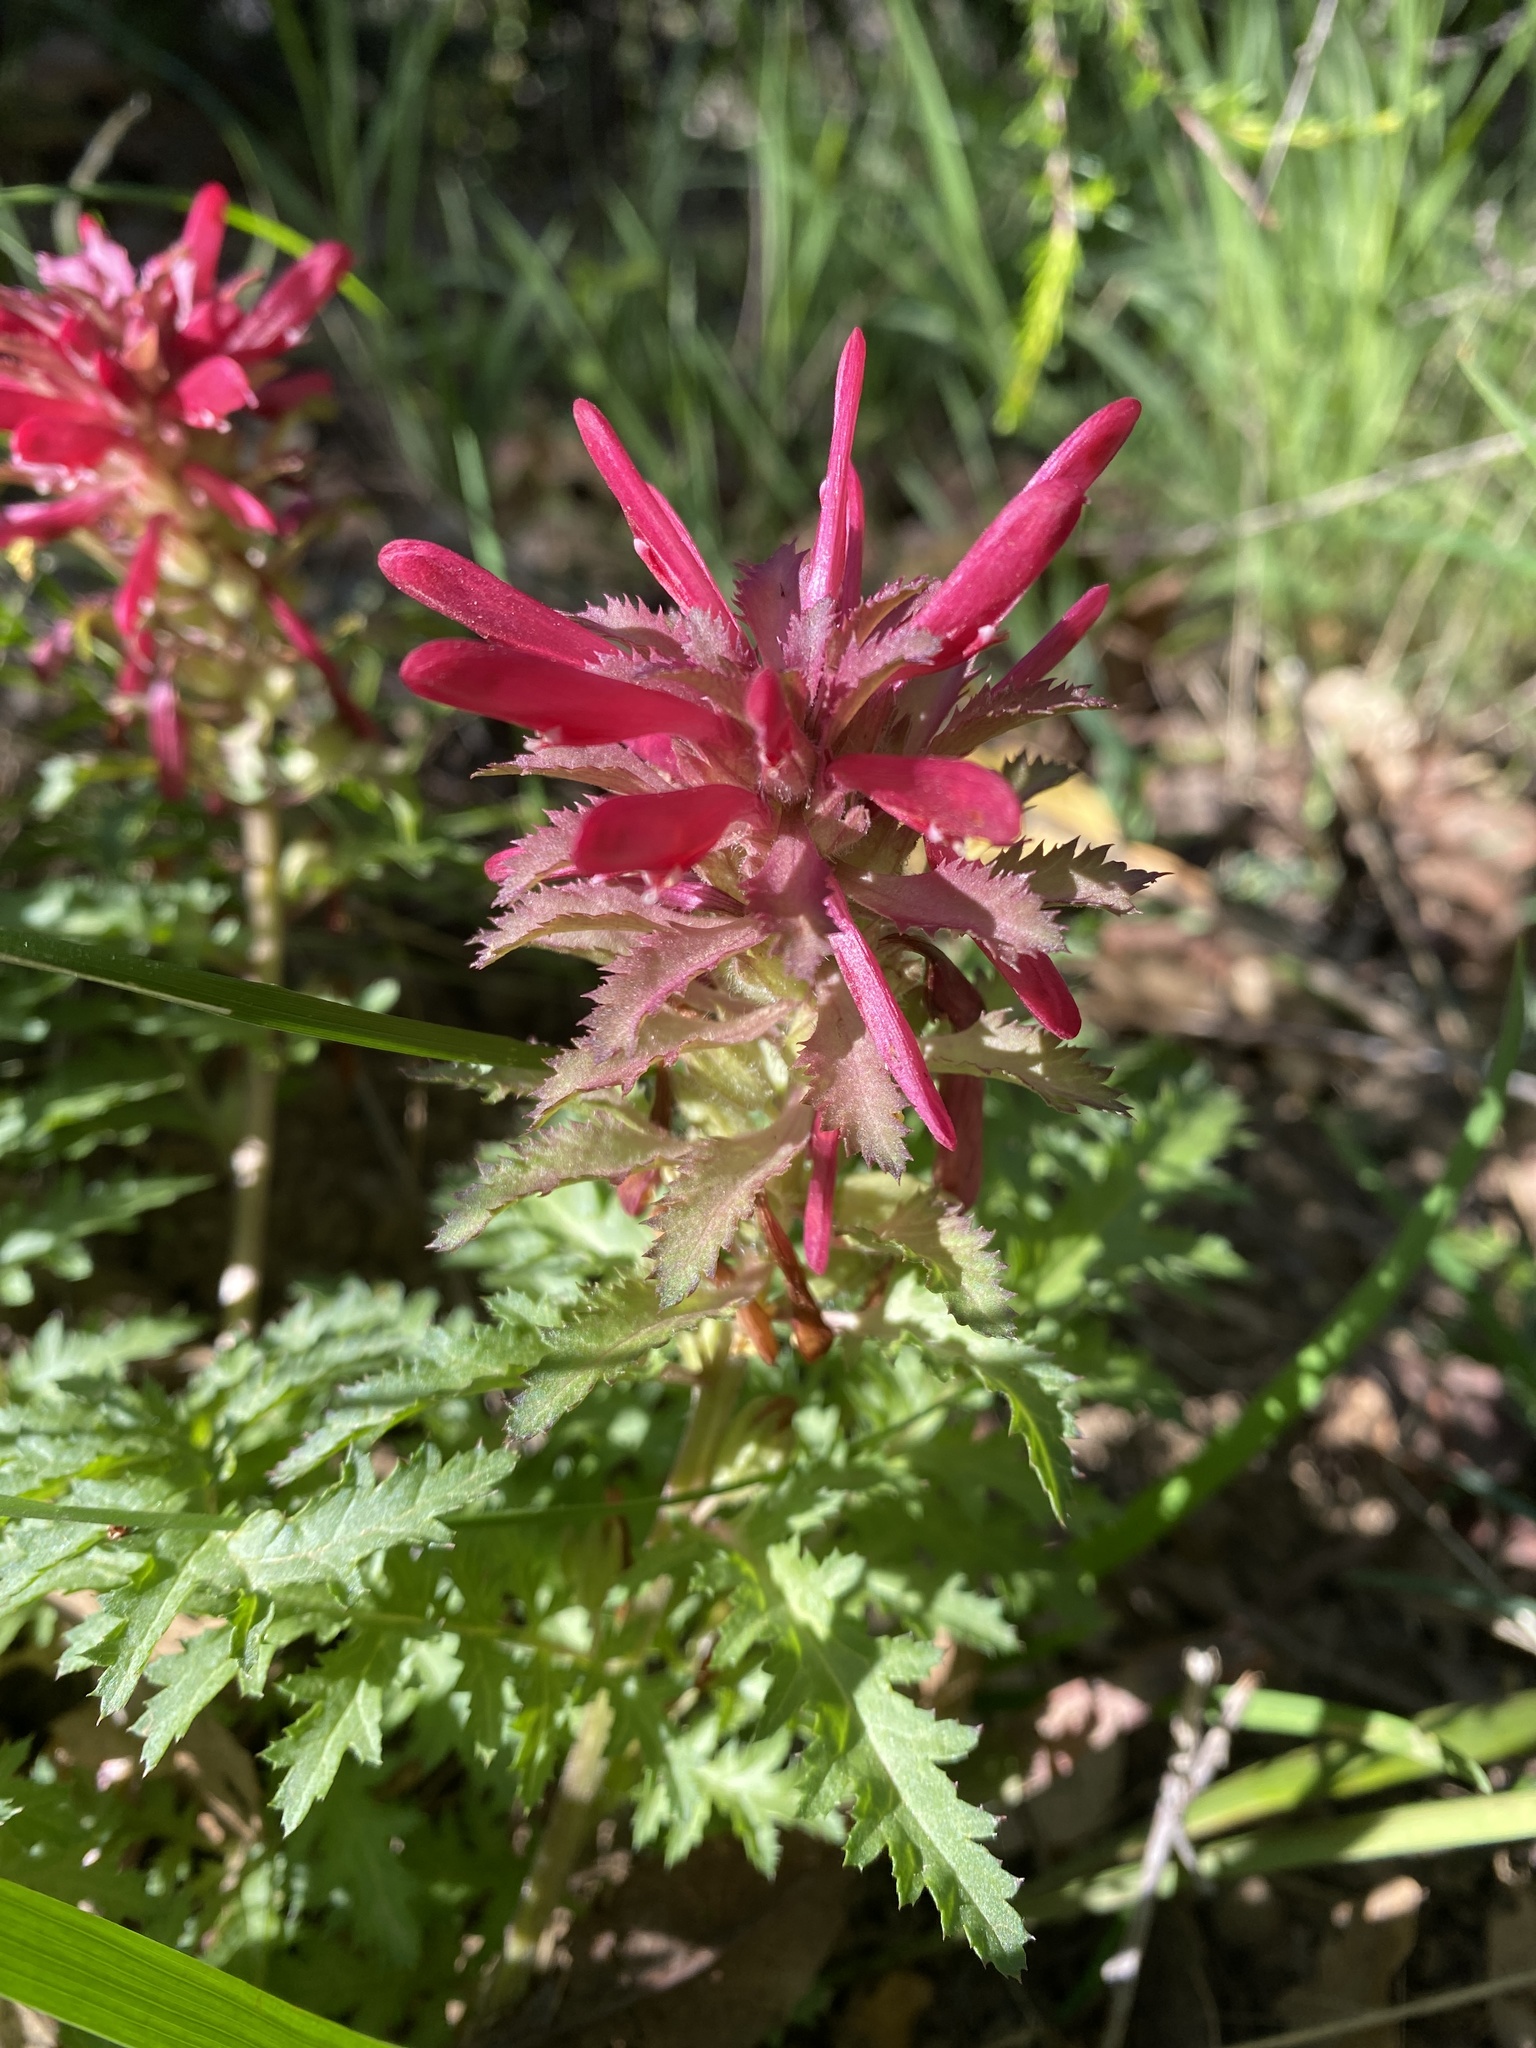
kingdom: Plantae
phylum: Tracheophyta
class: Magnoliopsida
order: Lamiales
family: Orobanchaceae
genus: Pedicularis
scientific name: Pedicularis densiflora
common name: Indian warrior
